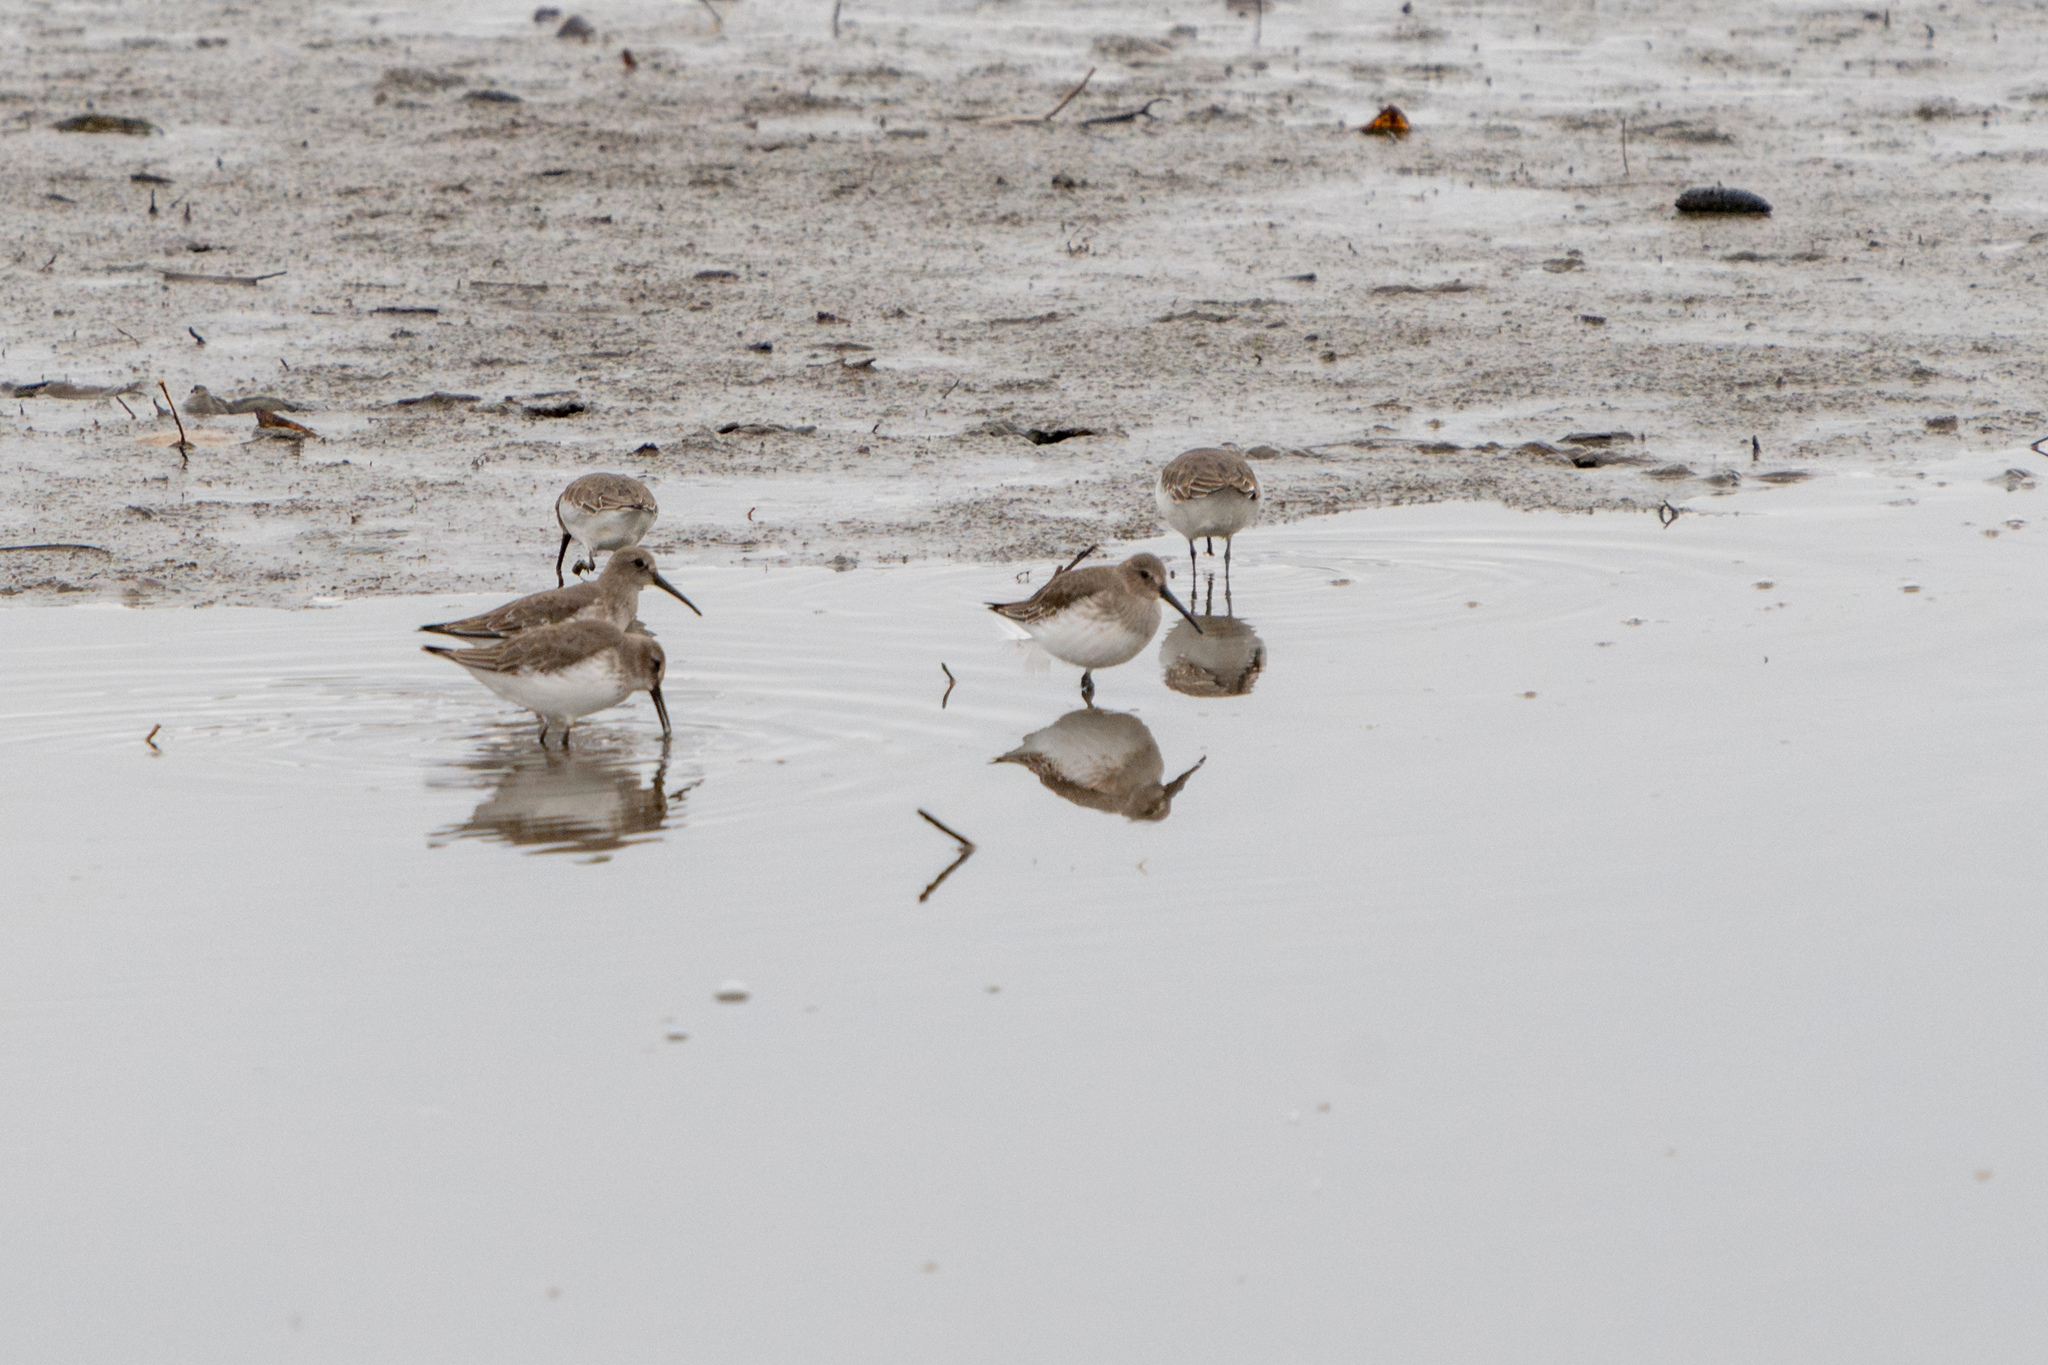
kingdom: Animalia
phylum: Chordata
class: Aves
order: Charadriiformes
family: Scolopacidae
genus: Calidris
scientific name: Calidris alpina
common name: Dunlin
